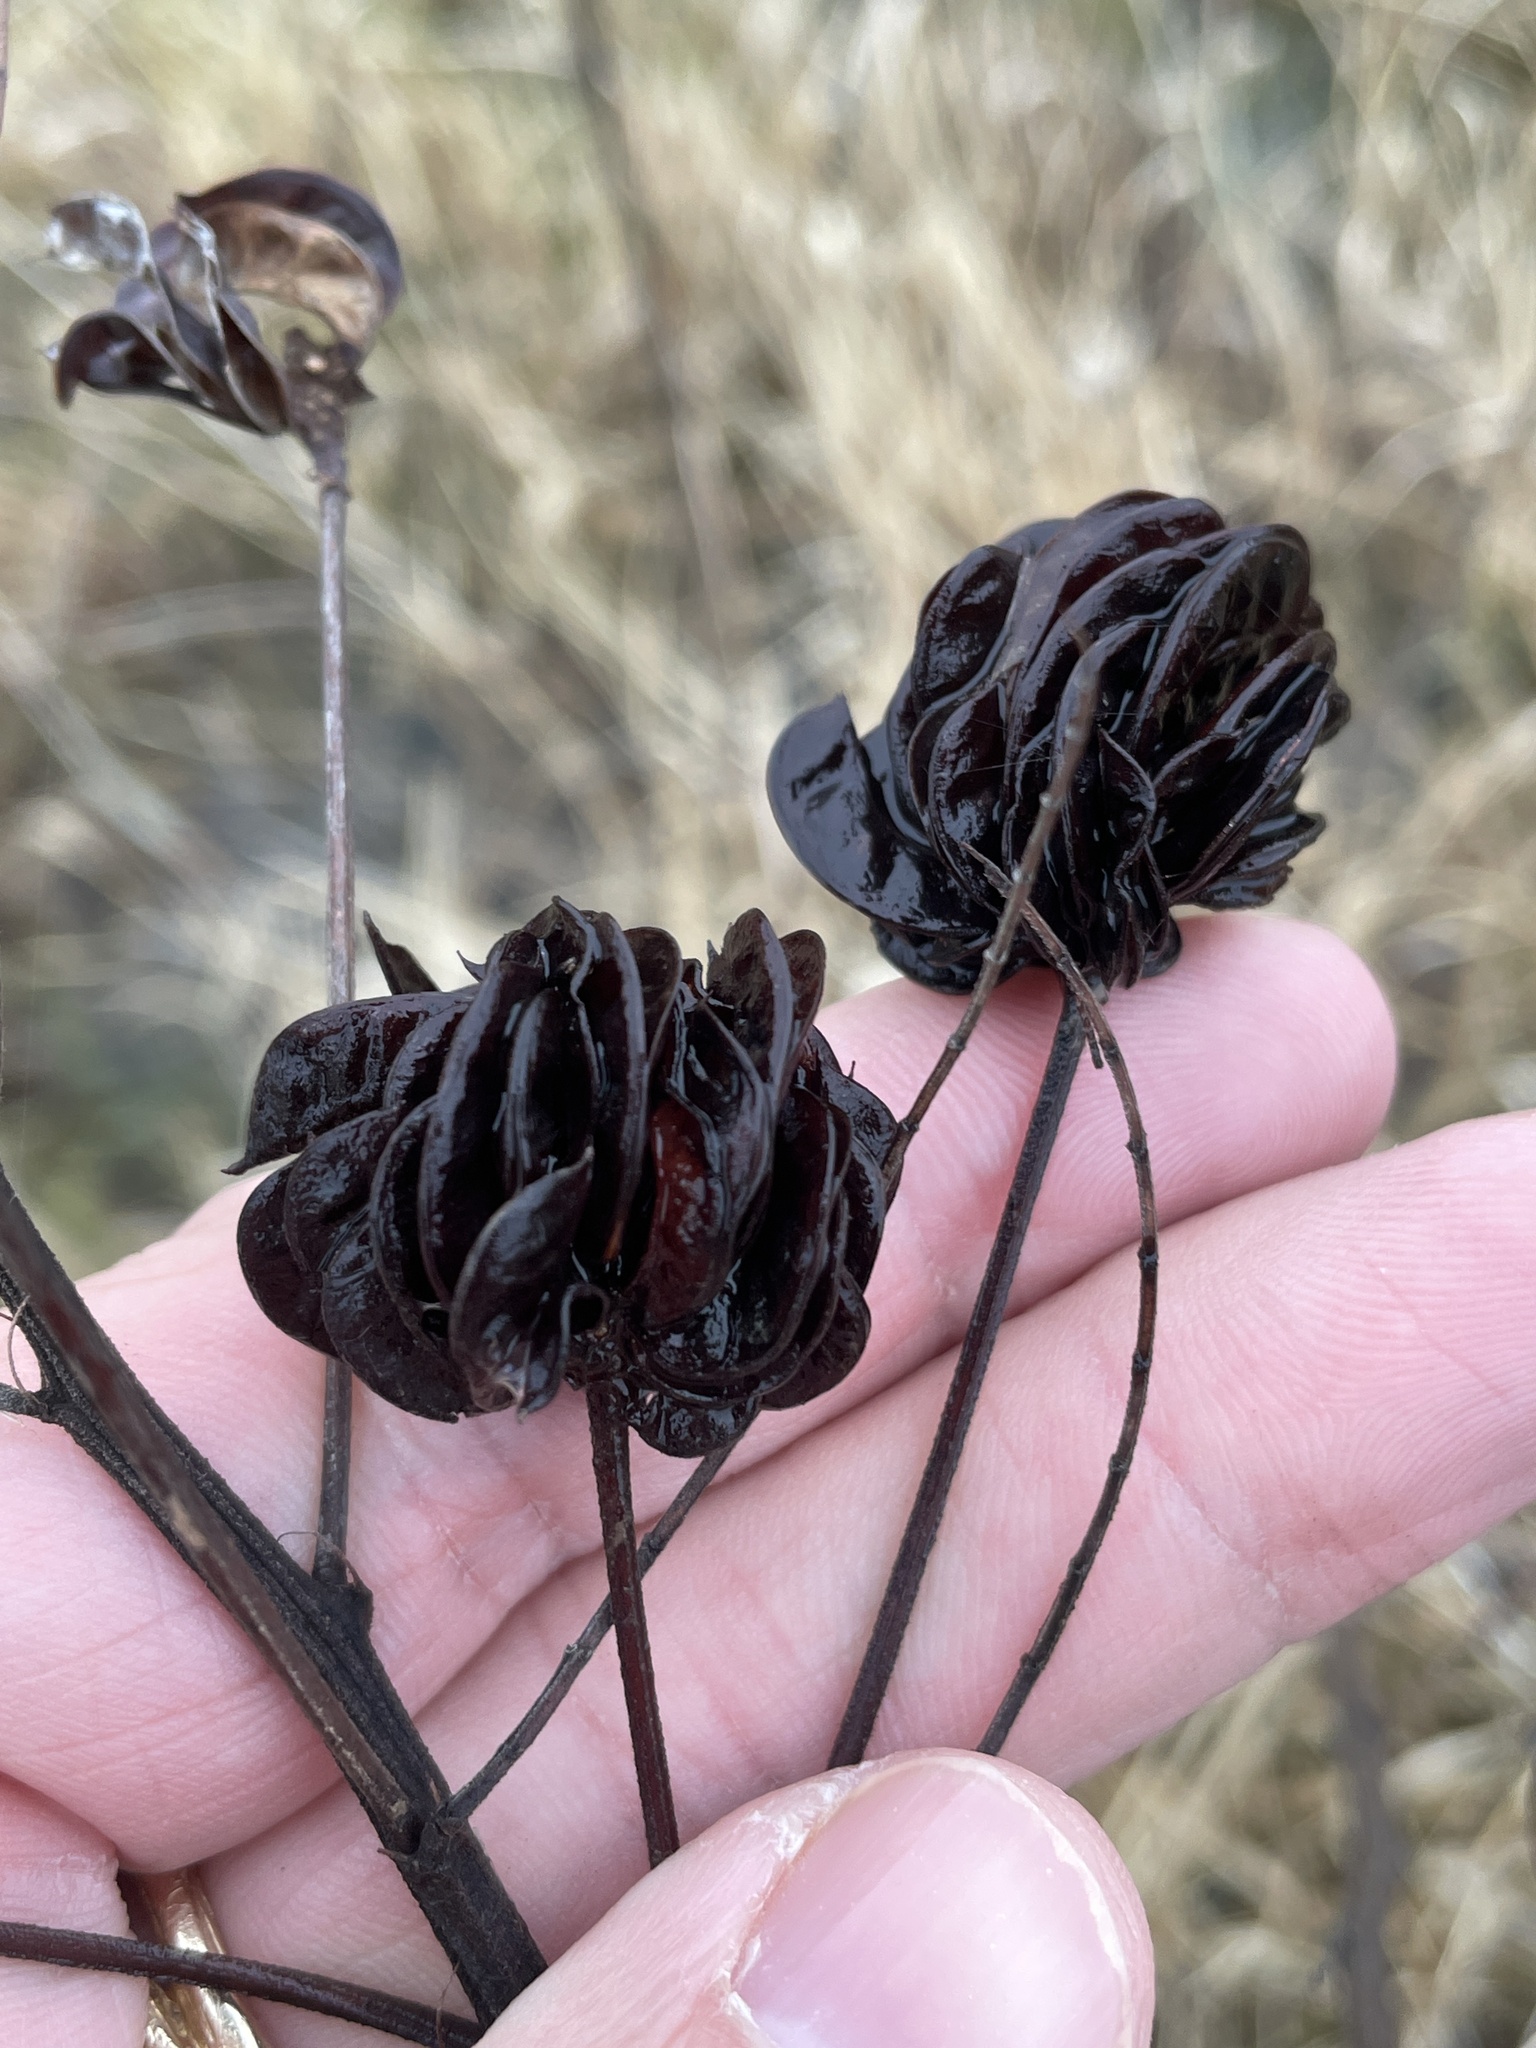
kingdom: Plantae
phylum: Tracheophyta
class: Magnoliopsida
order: Fabales
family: Fabaceae
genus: Desmanthus
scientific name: Desmanthus illinoensis
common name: Illinois bundle-flower
